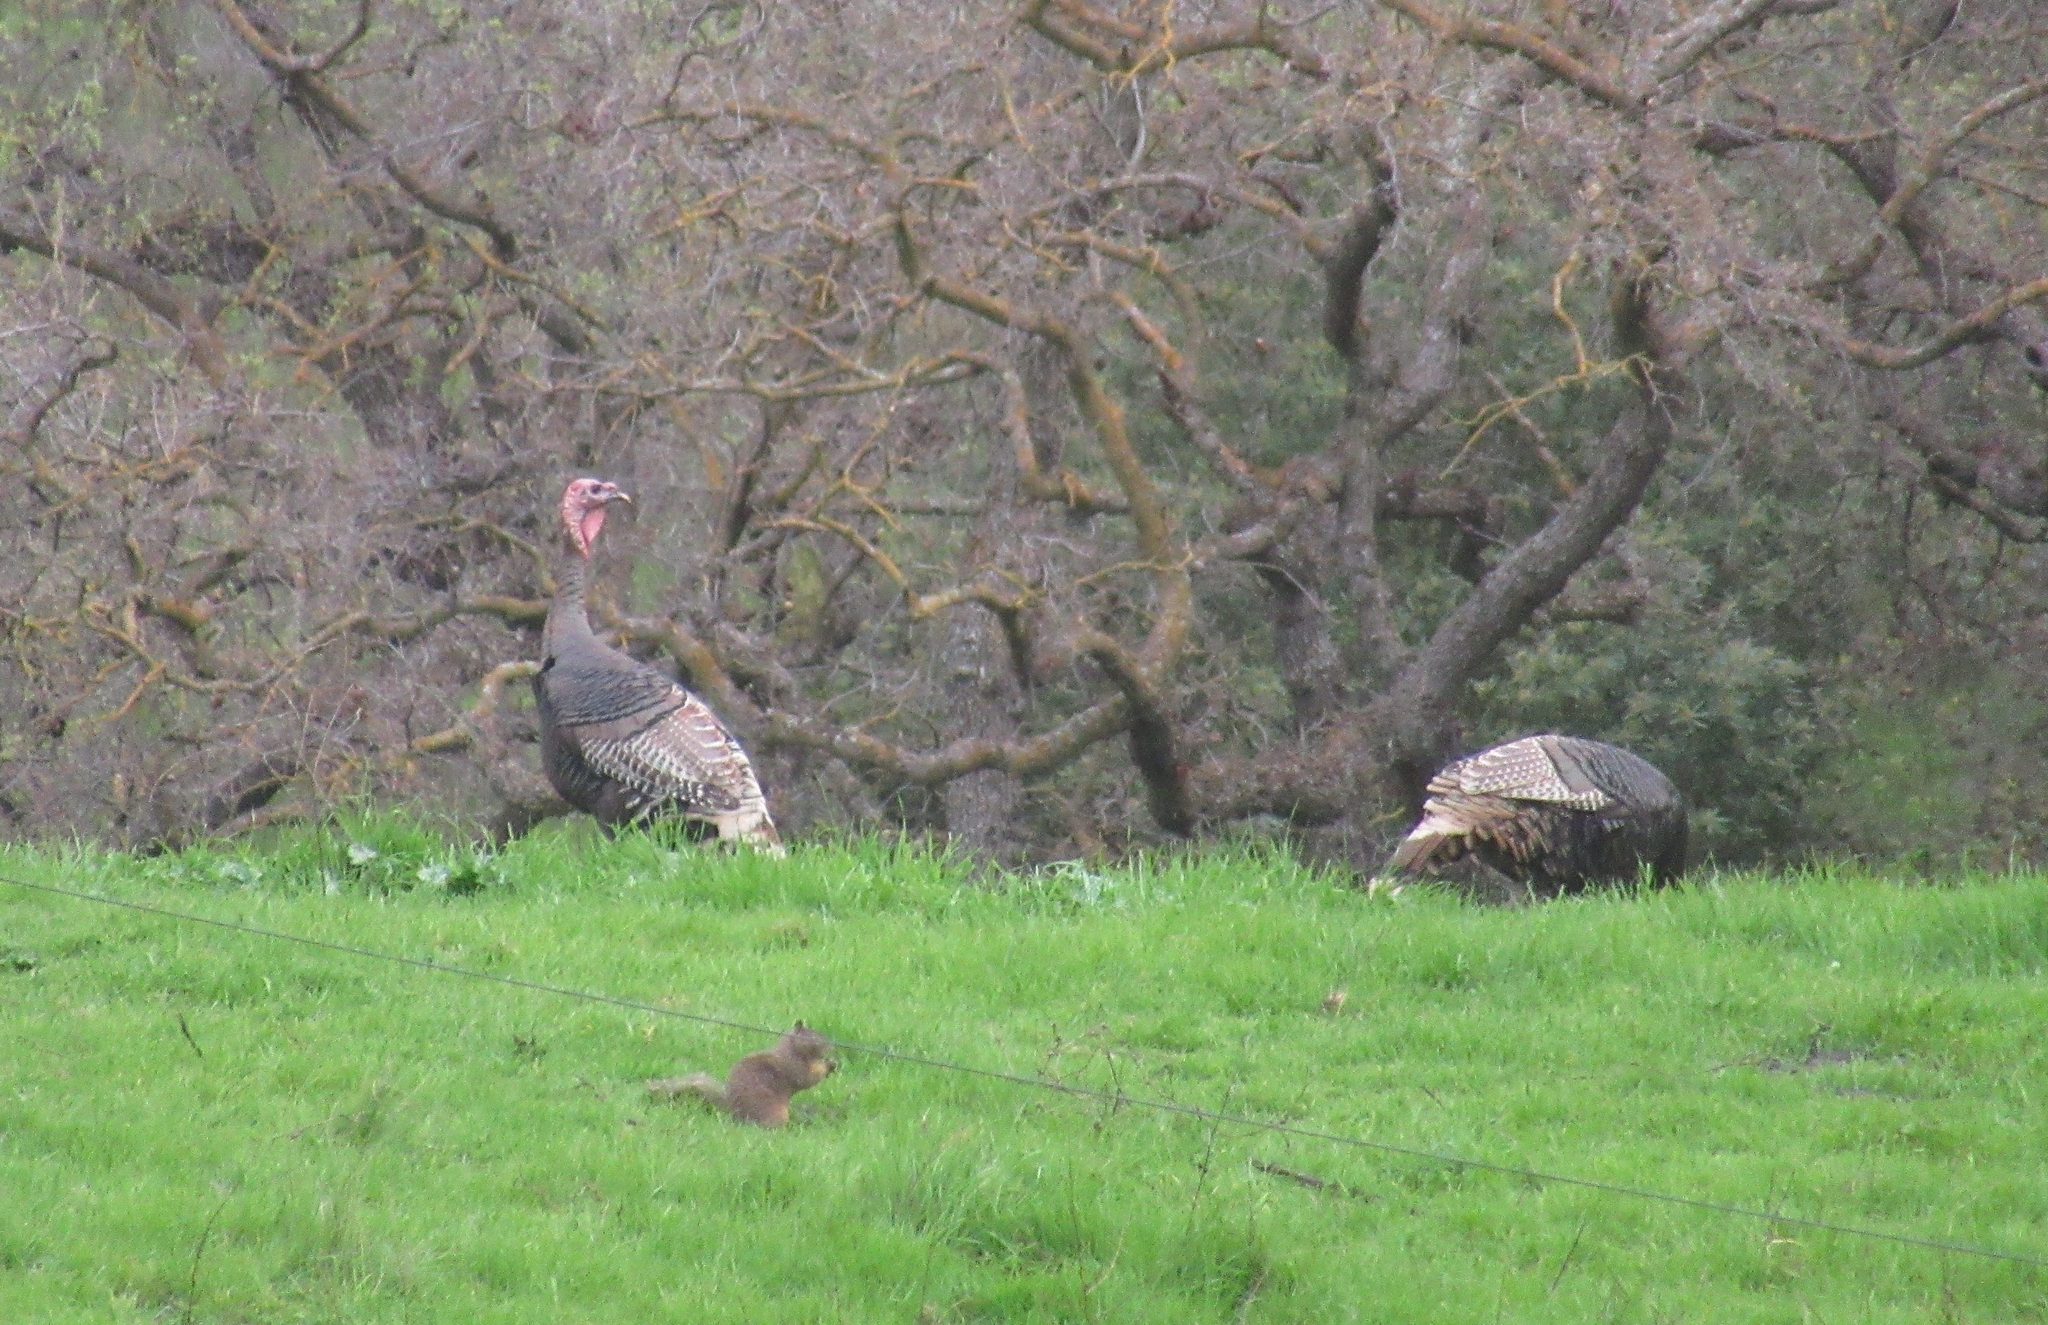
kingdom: Animalia
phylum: Chordata
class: Aves
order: Galliformes
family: Phasianidae
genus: Meleagris
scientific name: Meleagris gallopavo
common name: Wild turkey
